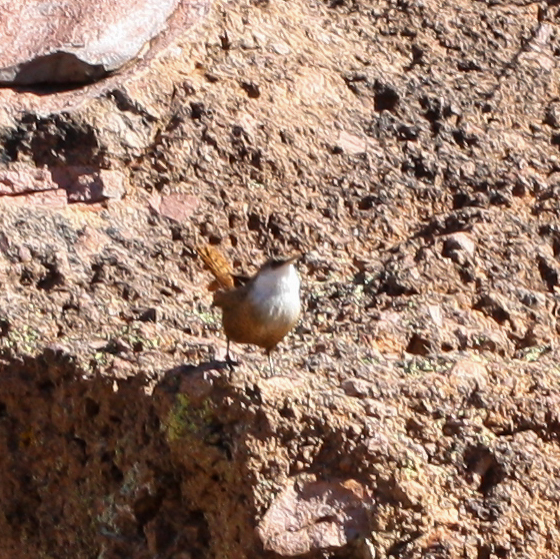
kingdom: Animalia
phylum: Chordata
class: Aves
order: Passeriformes
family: Troglodytidae
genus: Catherpes
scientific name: Catherpes mexicanus
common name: Canyon wren
